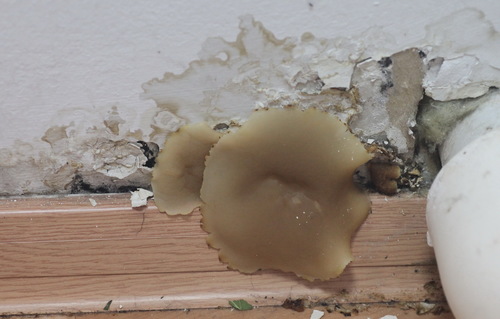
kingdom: Fungi
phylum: Ascomycota
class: Pezizomycetes
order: Pezizales
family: Pezizaceae
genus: Peziza
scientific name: Peziza domiciliana
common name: Home cup
